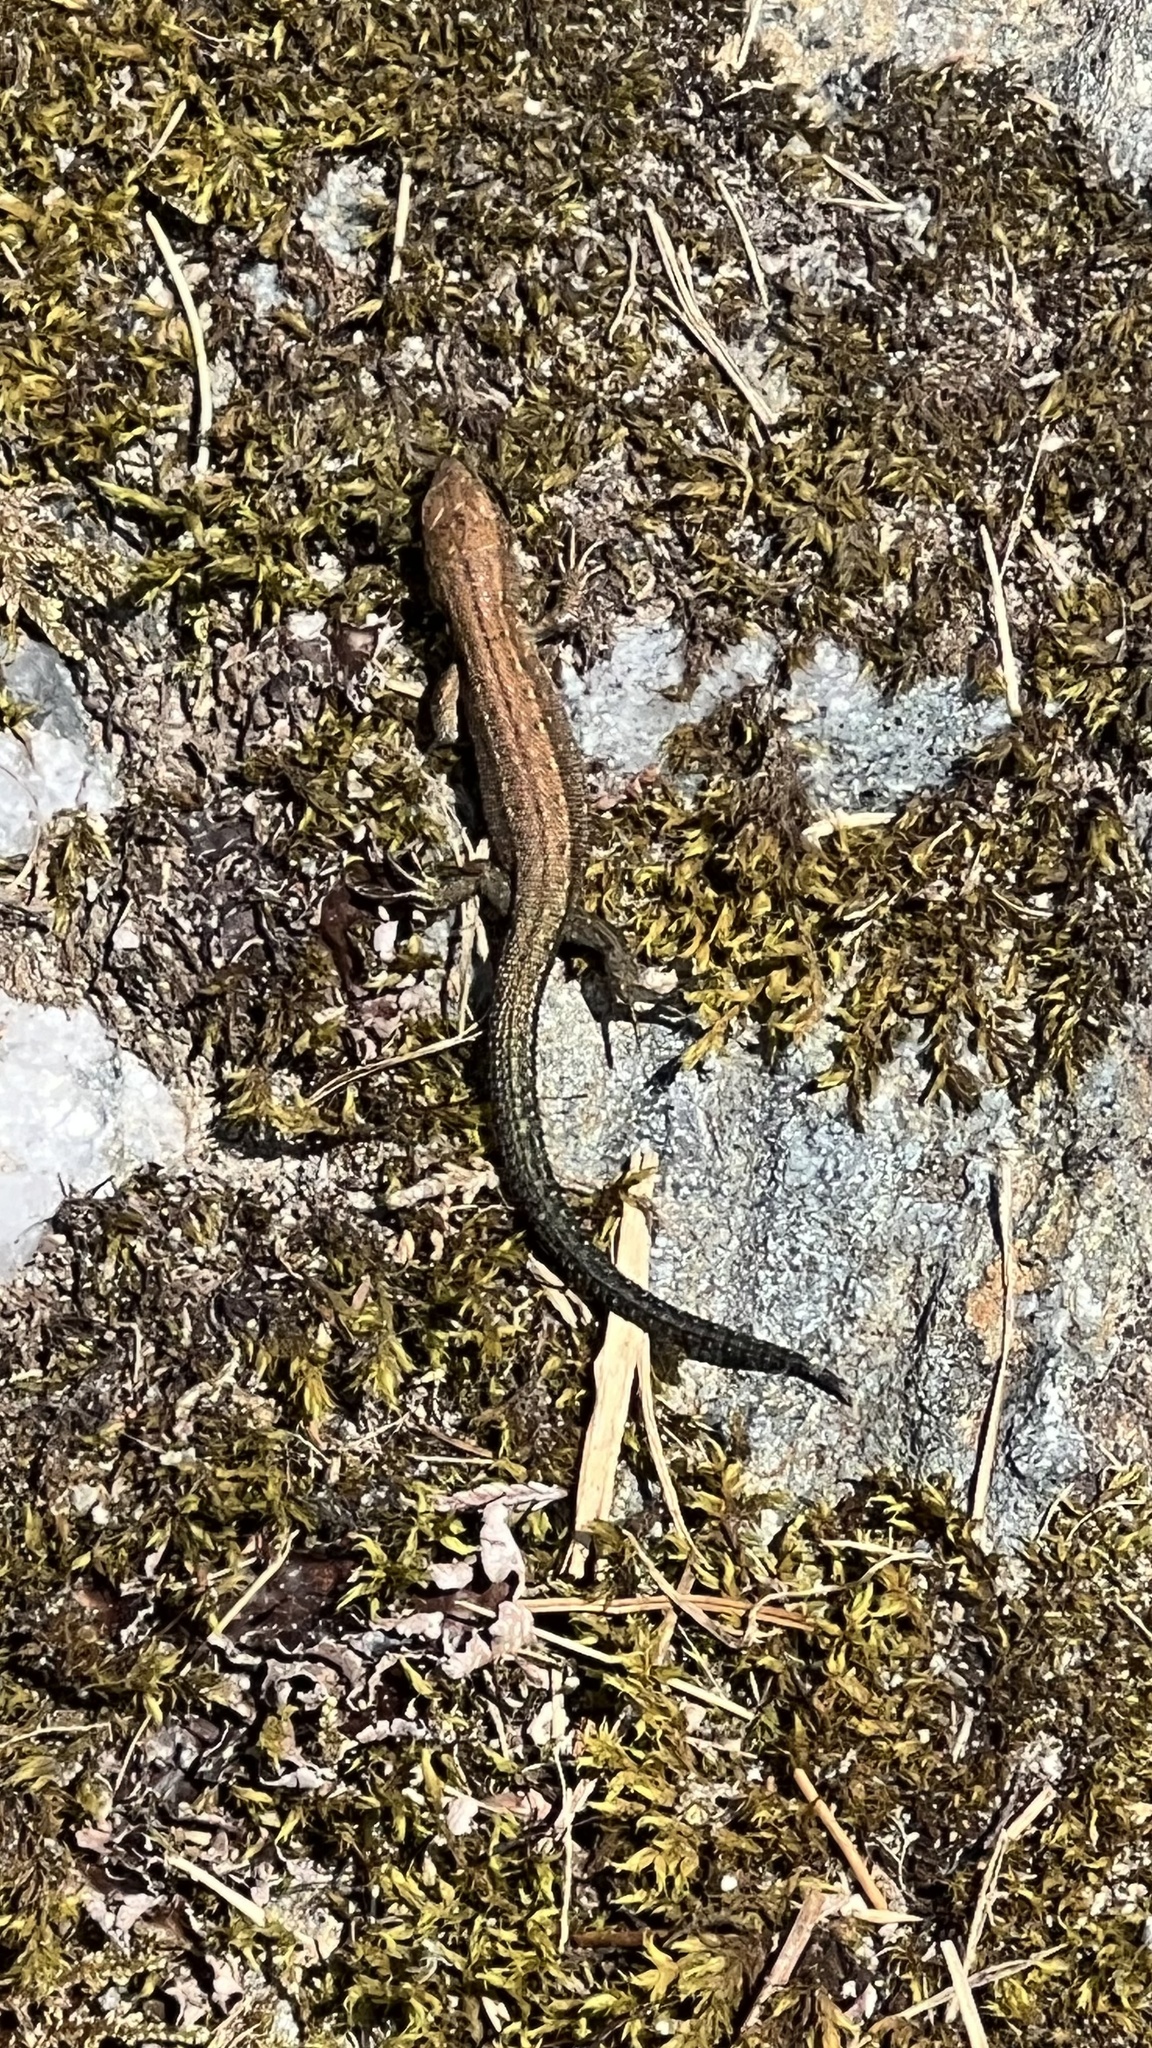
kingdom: Animalia
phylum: Chordata
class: Squamata
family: Lacertidae
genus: Zootoca
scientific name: Zootoca vivipara
